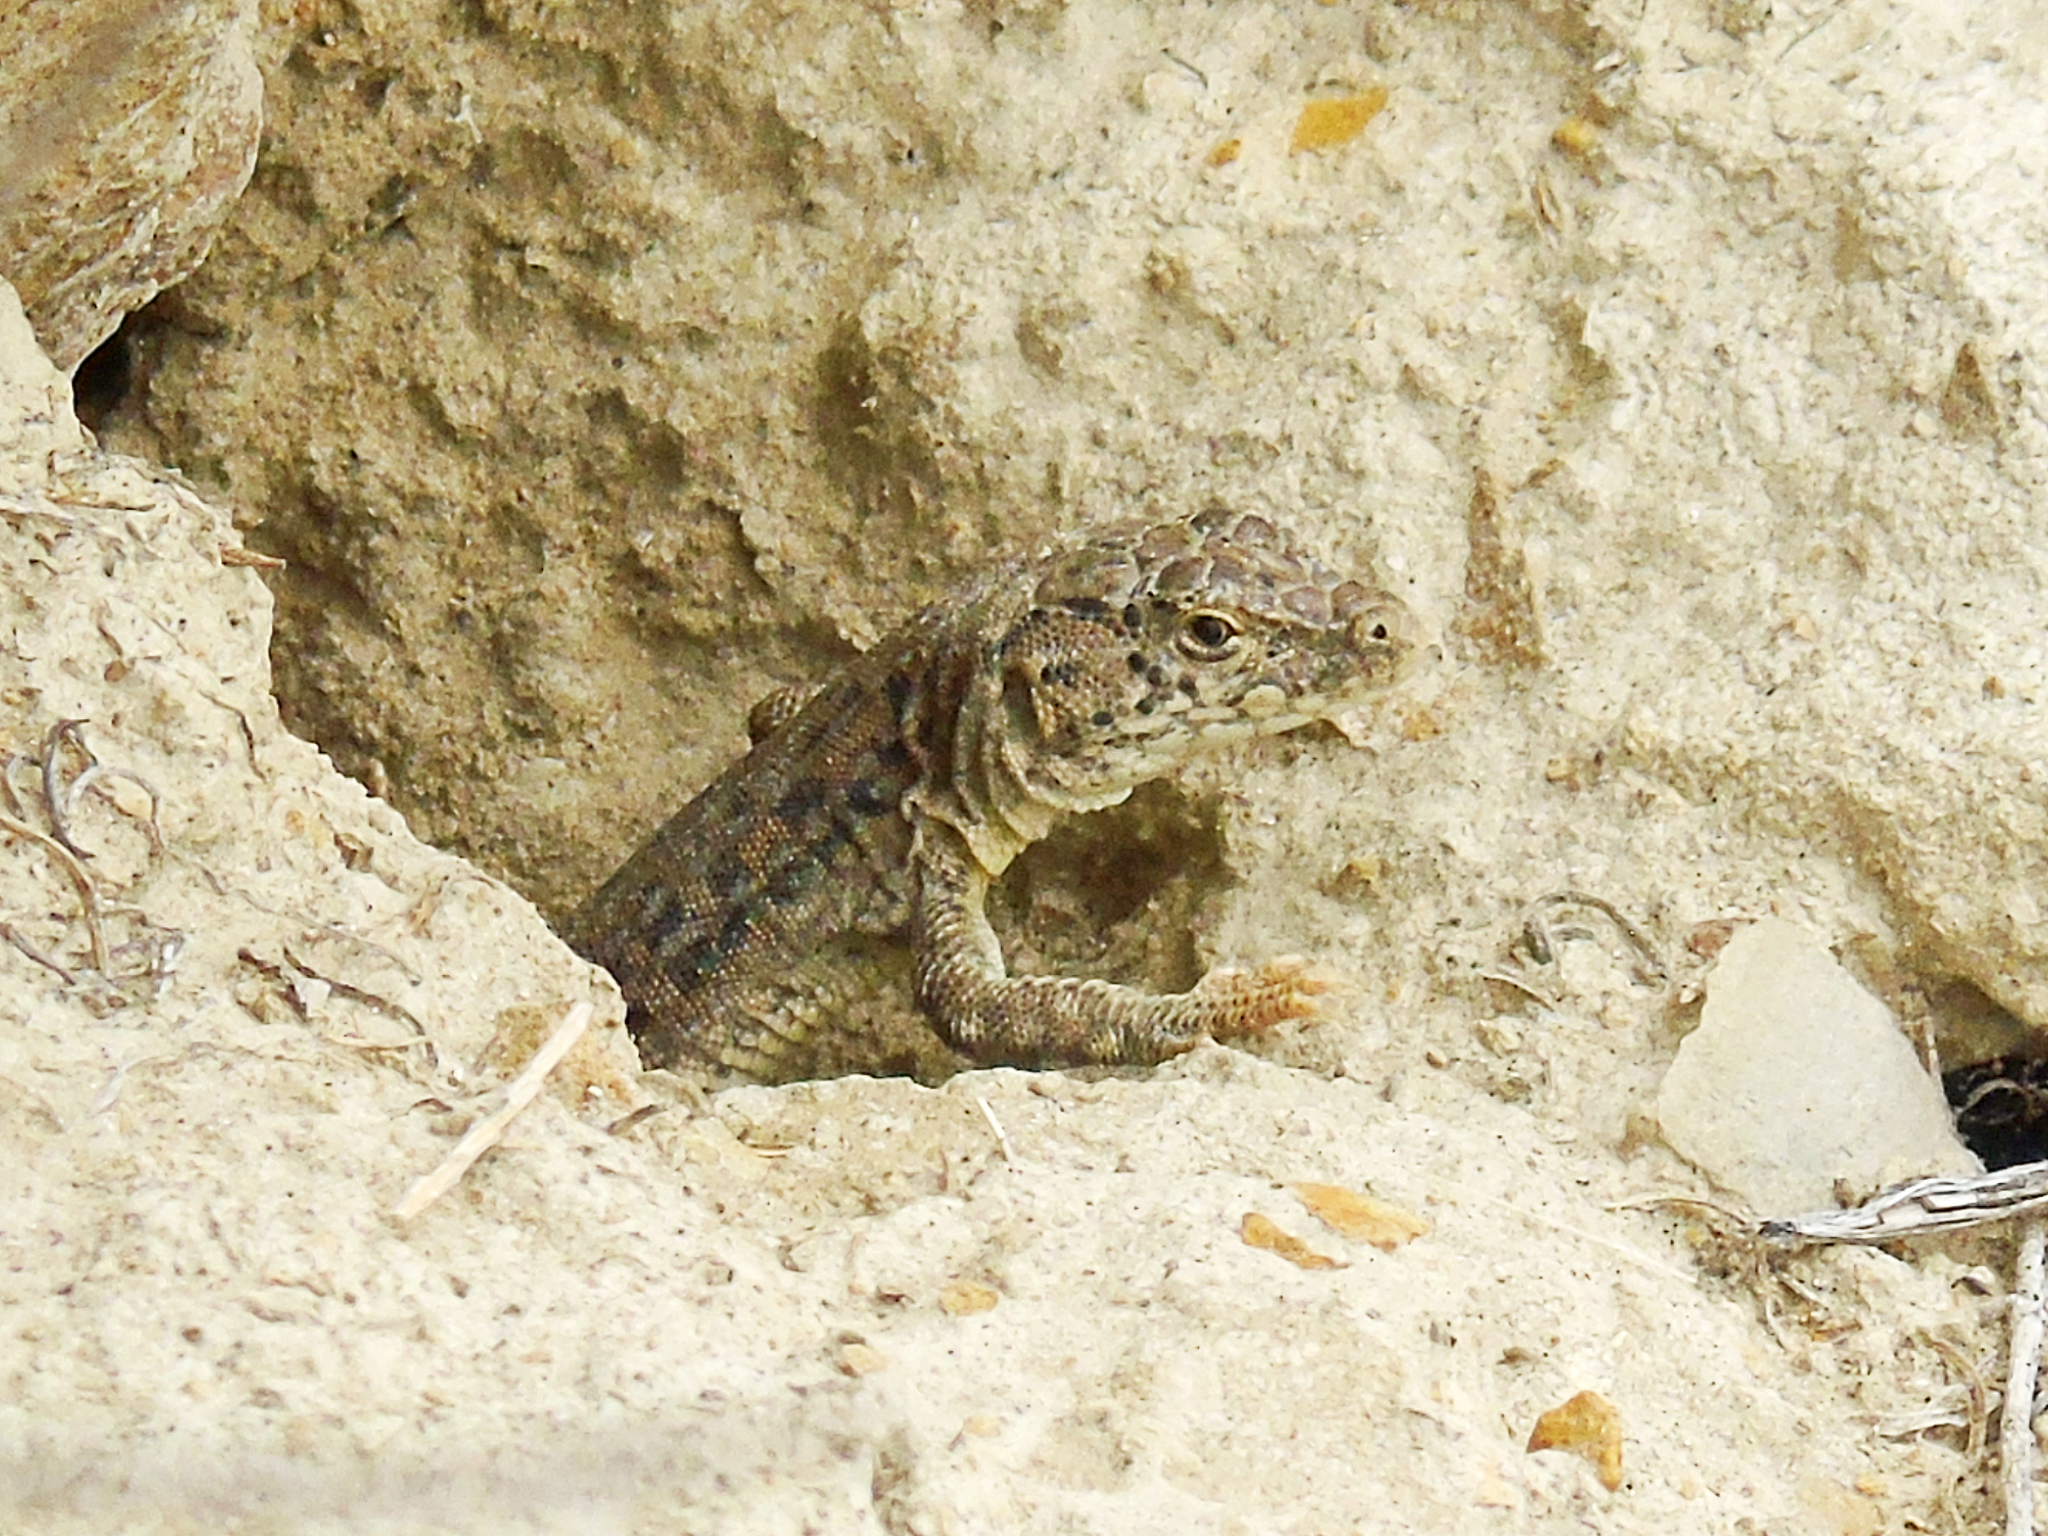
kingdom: Animalia
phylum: Chordata
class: Squamata
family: Lacertidae
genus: Eremias
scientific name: Eremias szczerbaki
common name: Szczerbak’s racerunner
